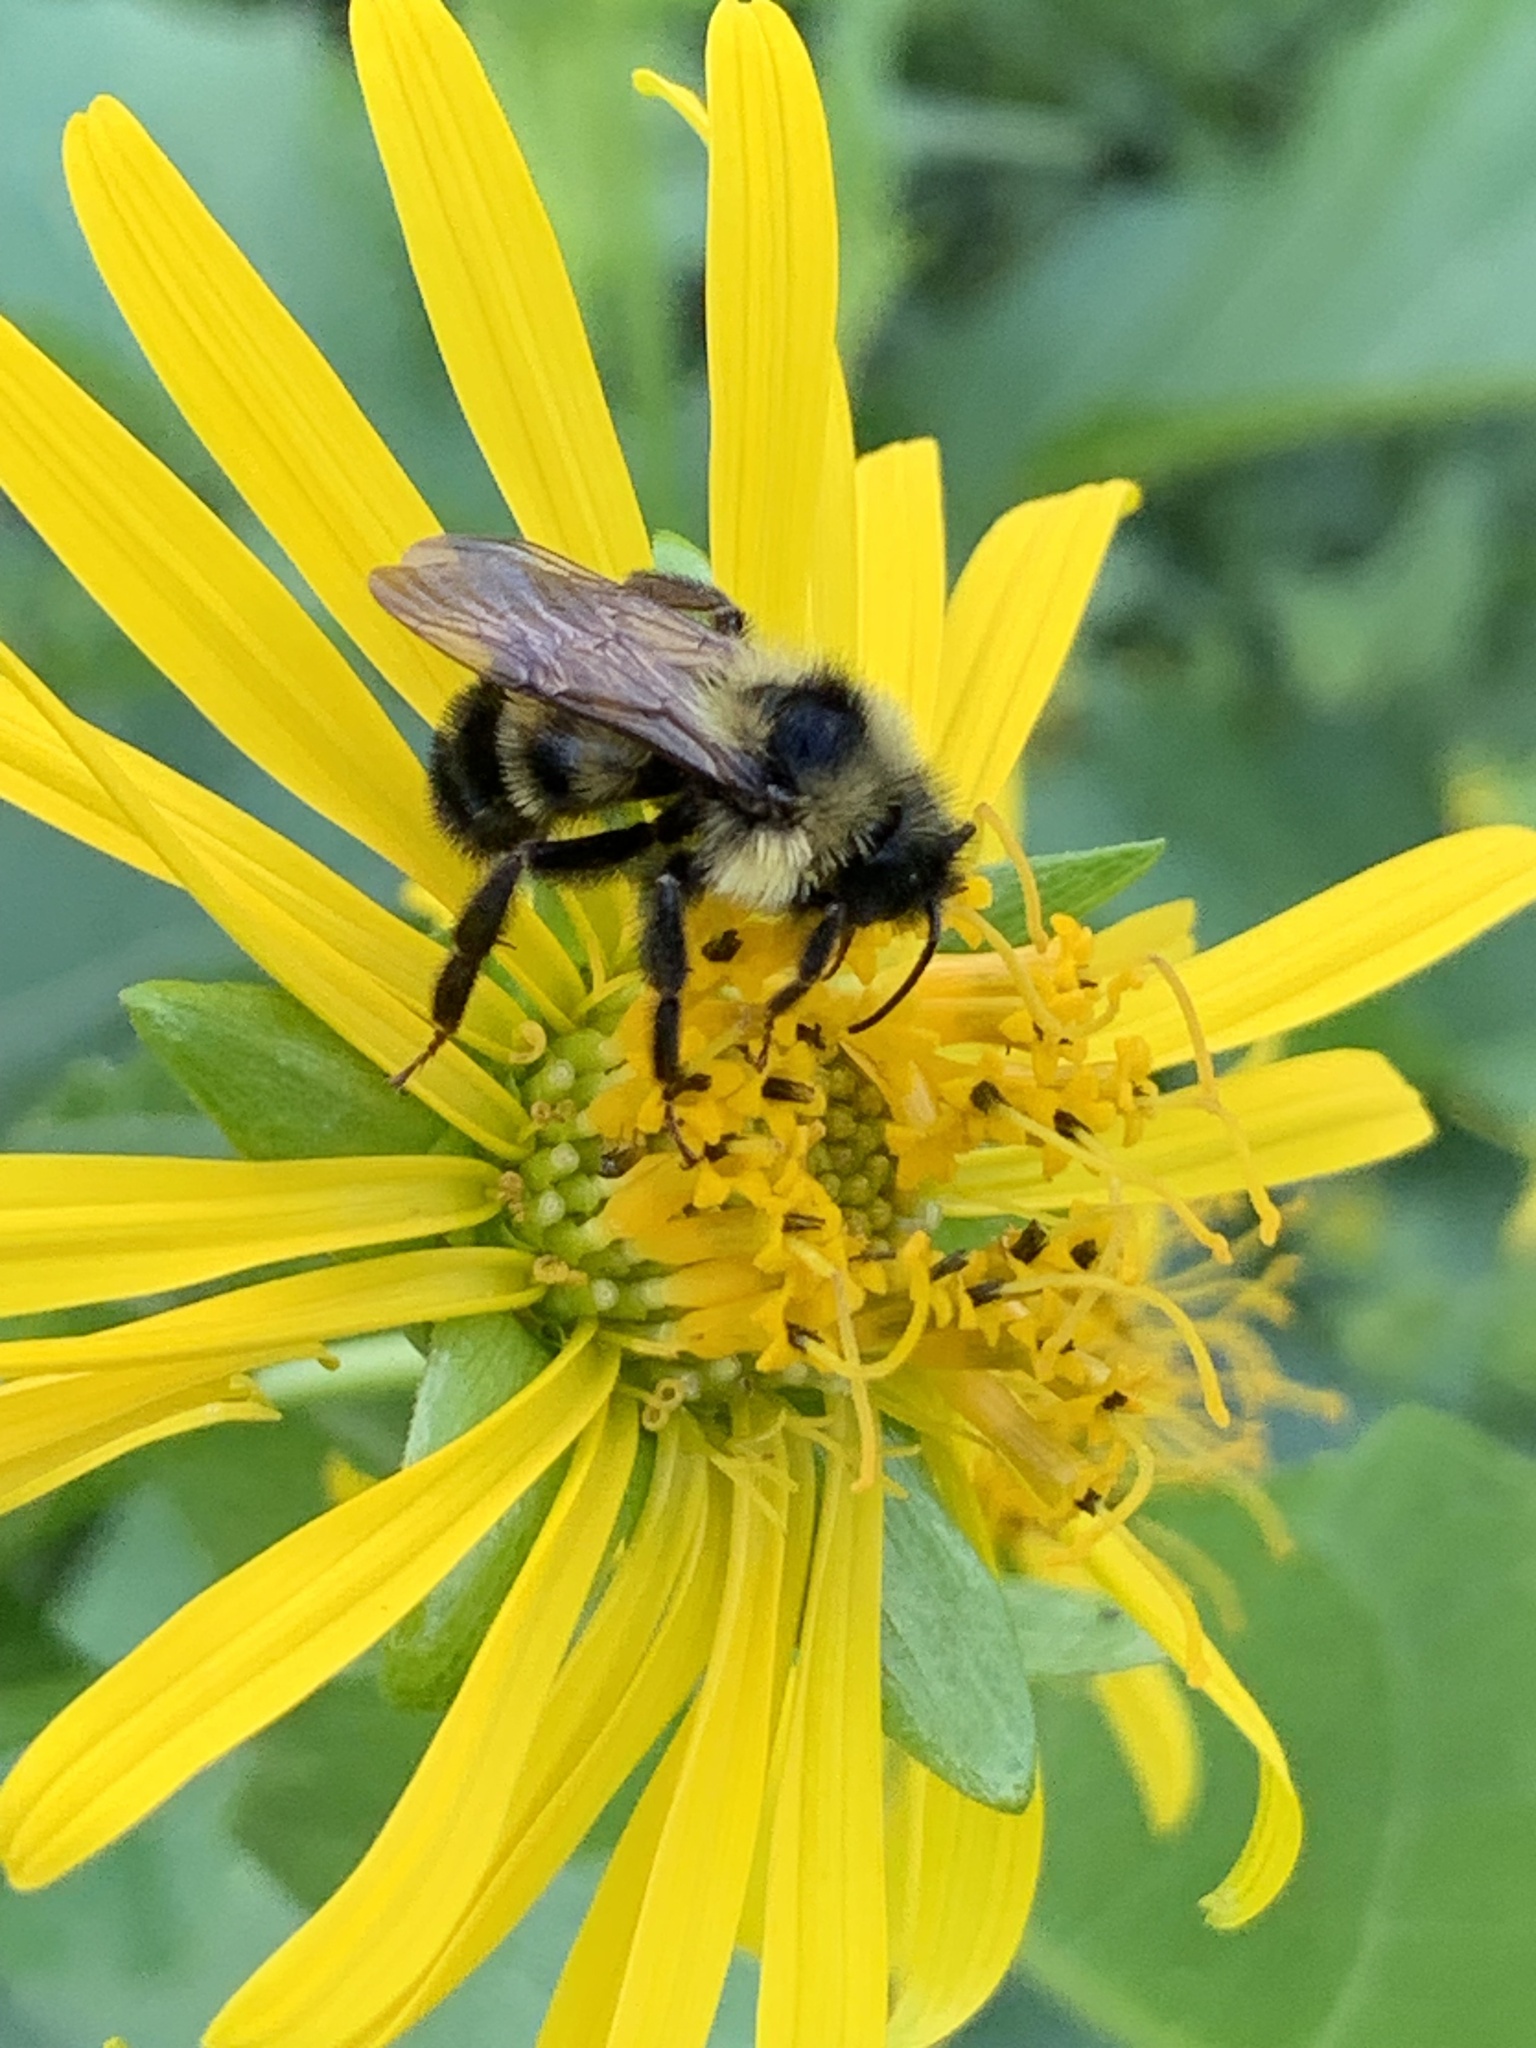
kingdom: Animalia
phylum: Arthropoda
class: Insecta
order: Hymenoptera
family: Apidae
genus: Bombus
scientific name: Bombus citrinus
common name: Lemon cuckoo bumble bee
